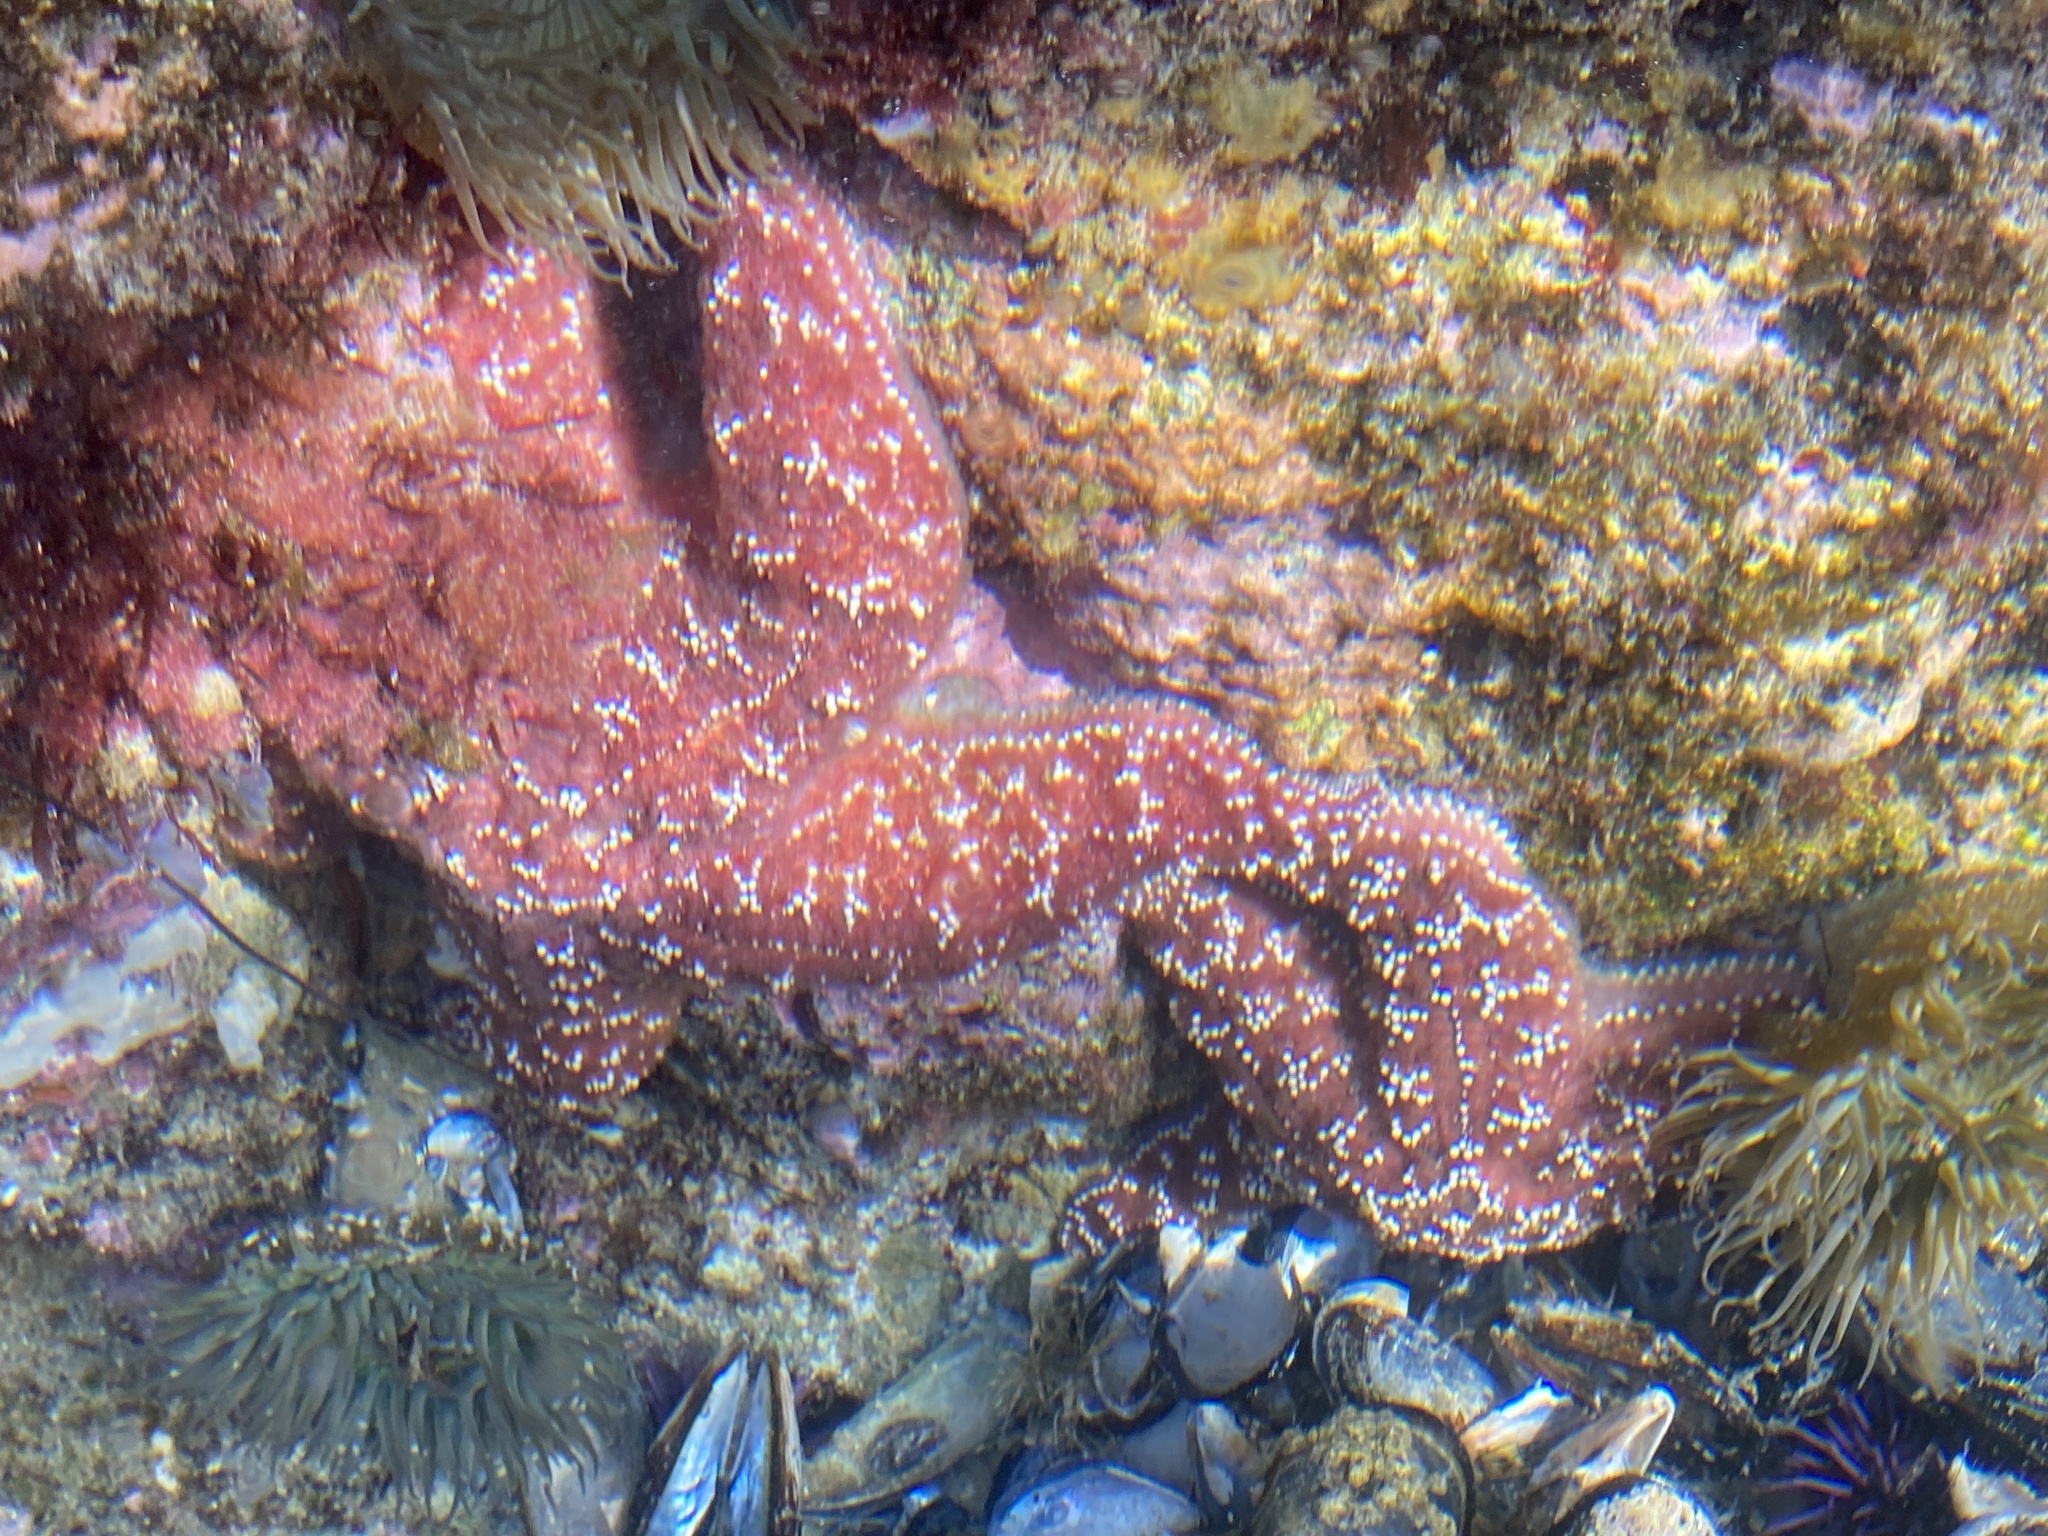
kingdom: Animalia
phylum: Echinodermata
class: Asteroidea
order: Forcipulatida
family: Asteriidae
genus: Pisaster
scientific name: Pisaster ochraceus
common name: Ochre stars
